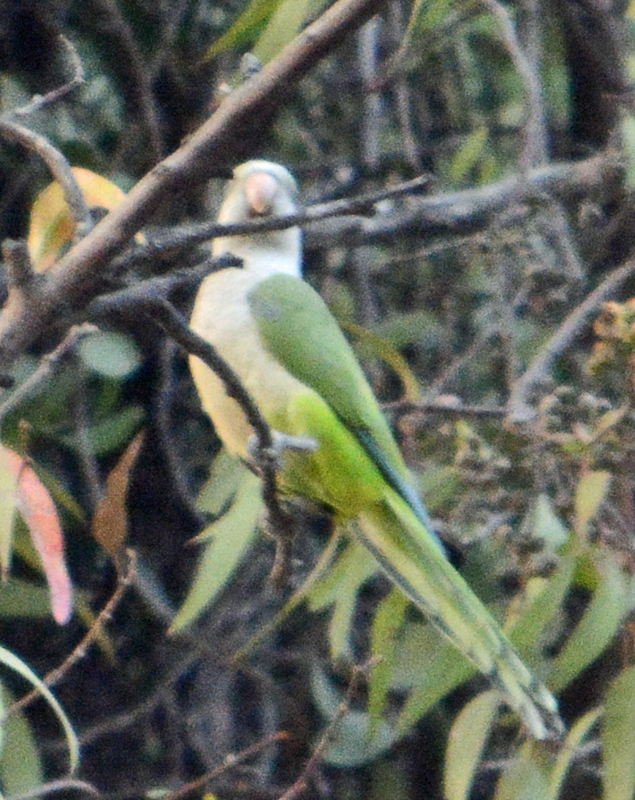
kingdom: Animalia
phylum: Chordata
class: Aves
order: Psittaciformes
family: Psittacidae
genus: Myiopsitta
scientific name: Myiopsitta monachus
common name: Monk parakeet
